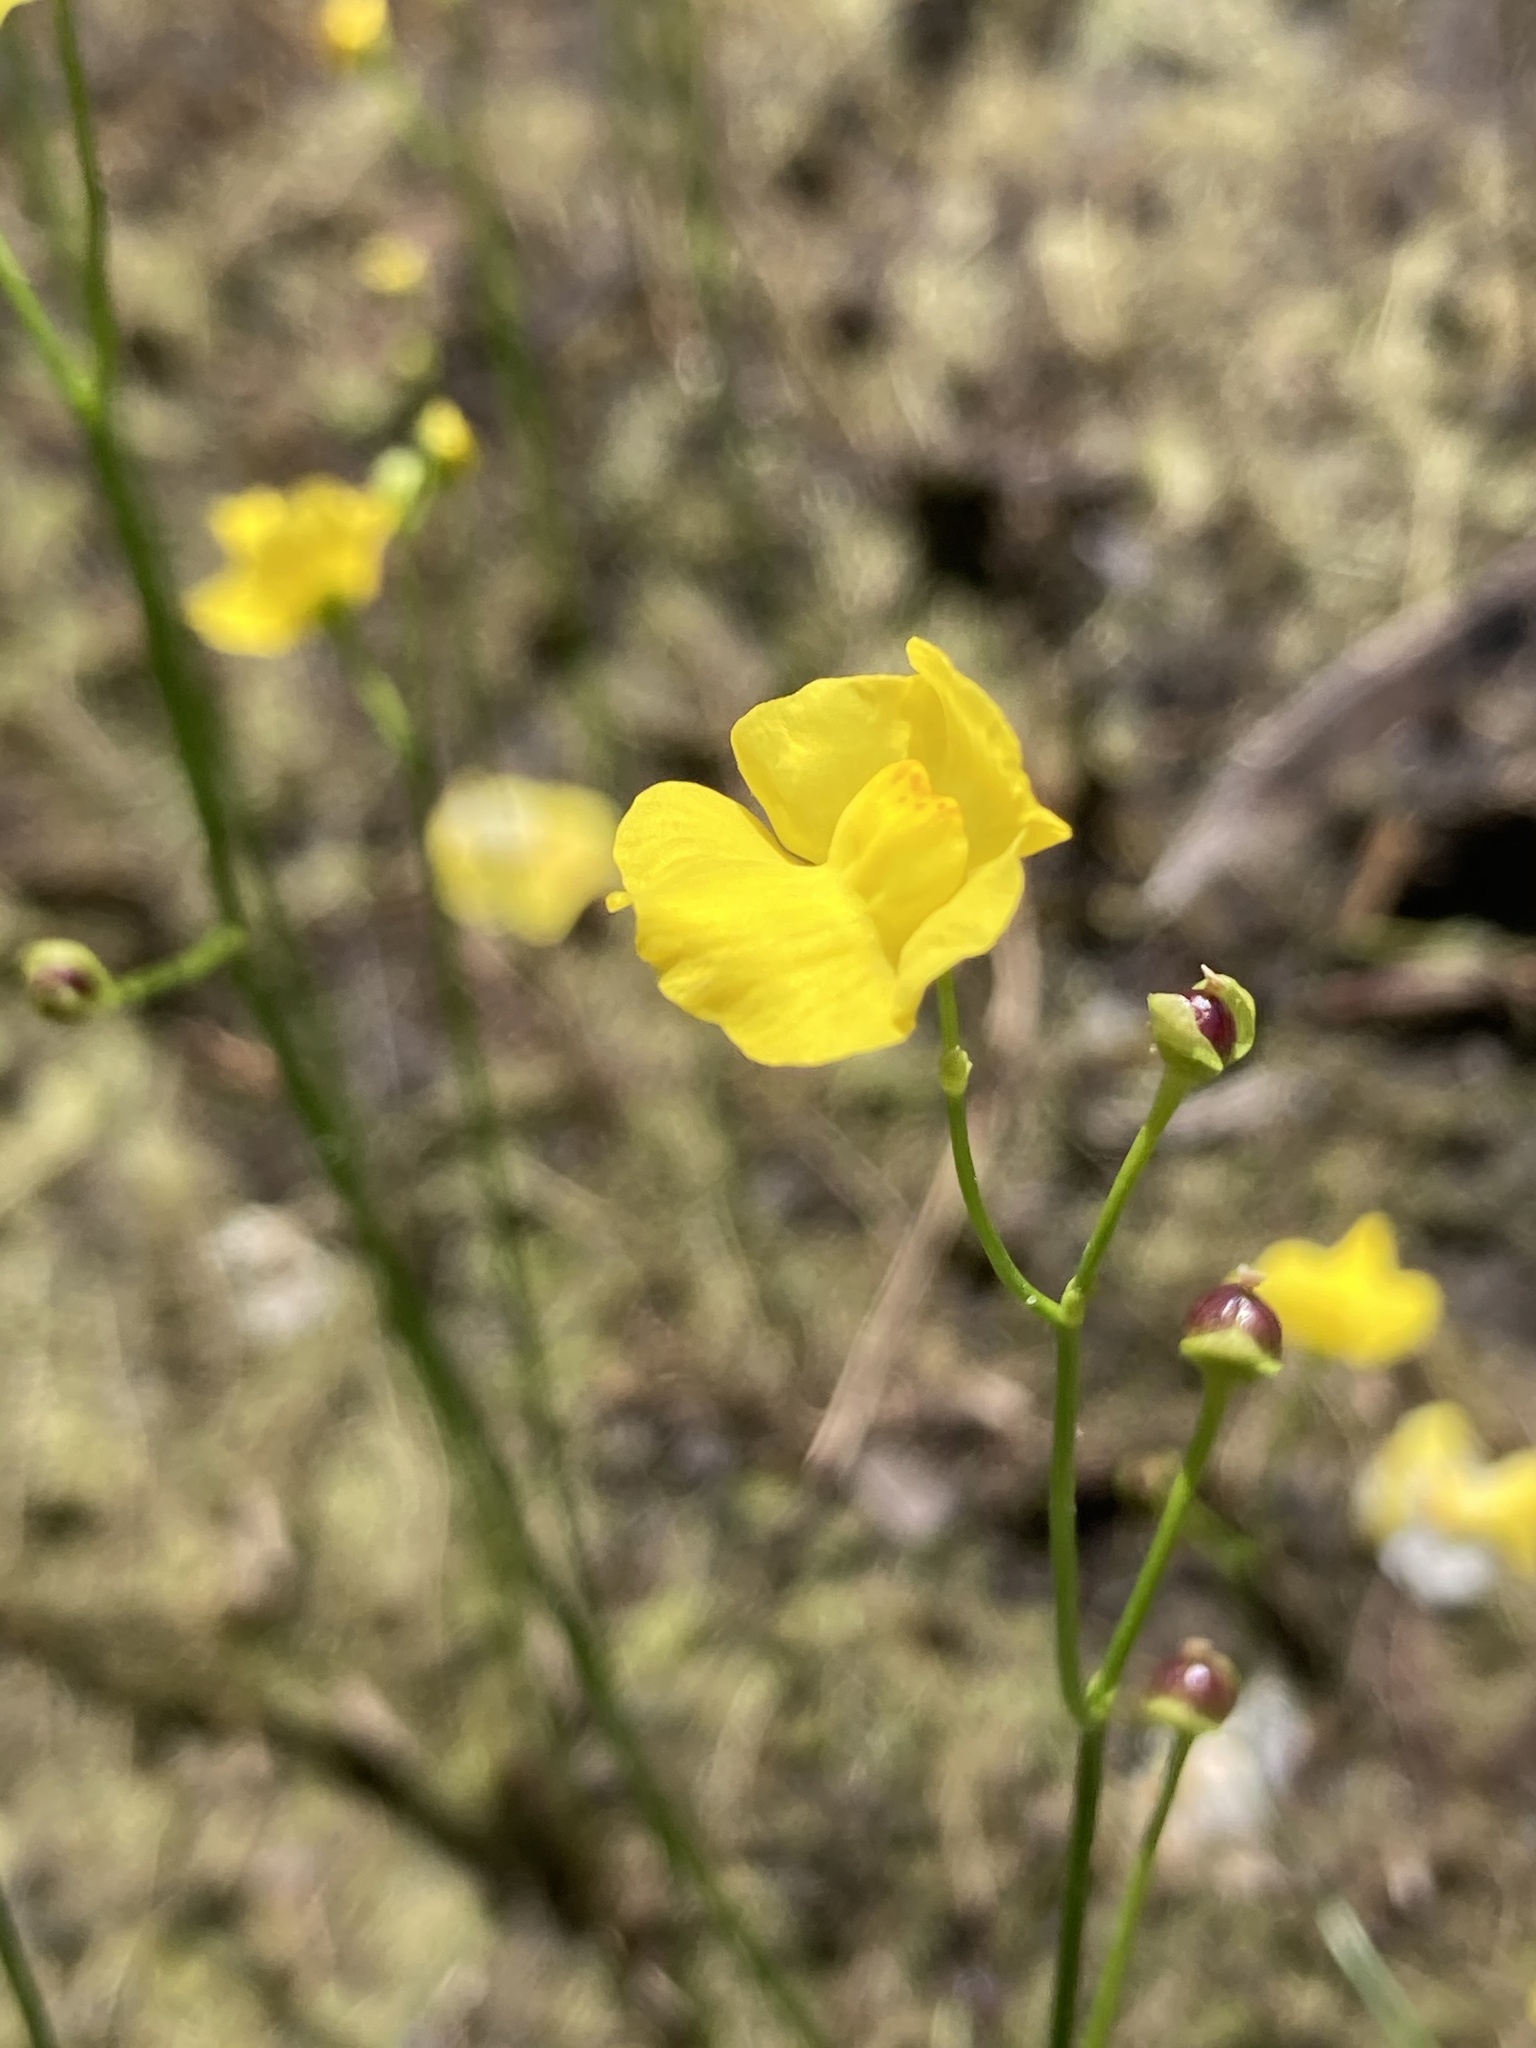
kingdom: Plantae
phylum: Tracheophyta
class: Magnoliopsida
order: Lamiales
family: Lentibulariaceae
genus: Utricularia
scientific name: Utricularia striata
